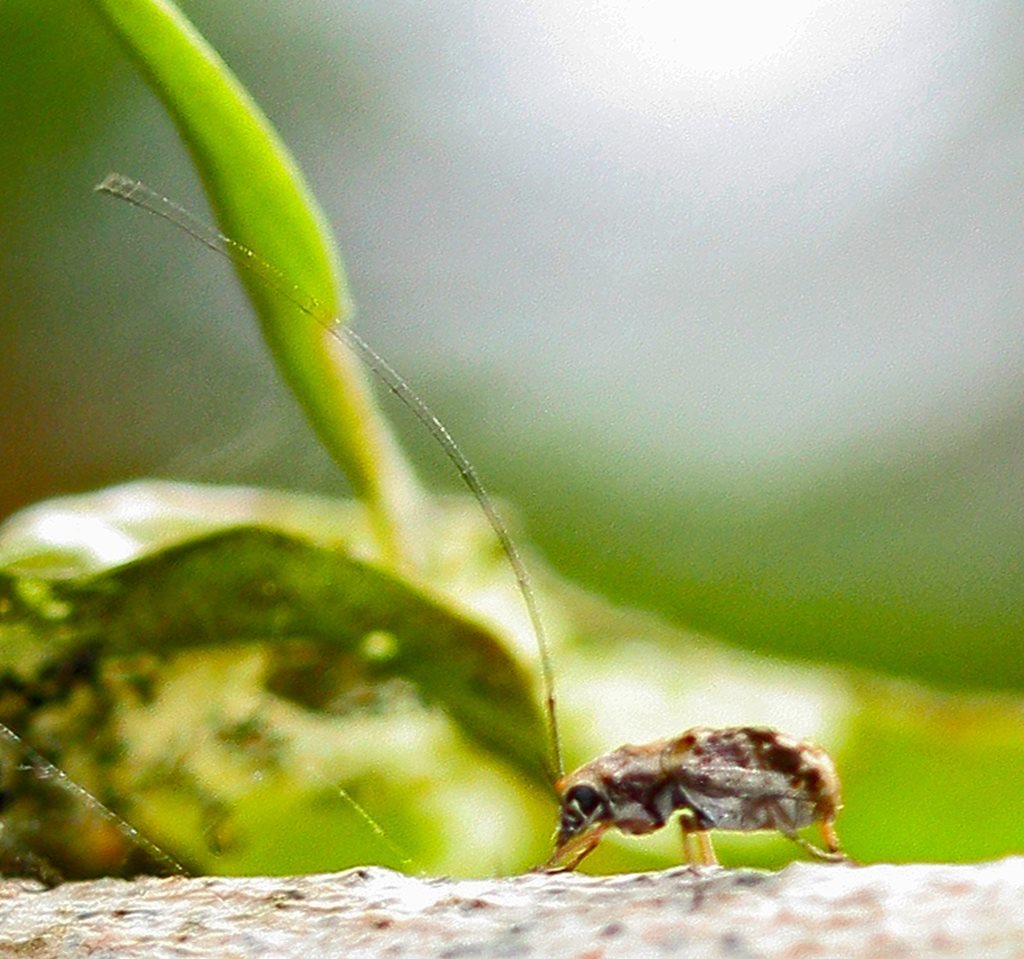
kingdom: Animalia
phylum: Arthropoda
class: Insecta
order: Coleoptera
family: Anthribidae
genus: Exillis
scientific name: Exillis australis
